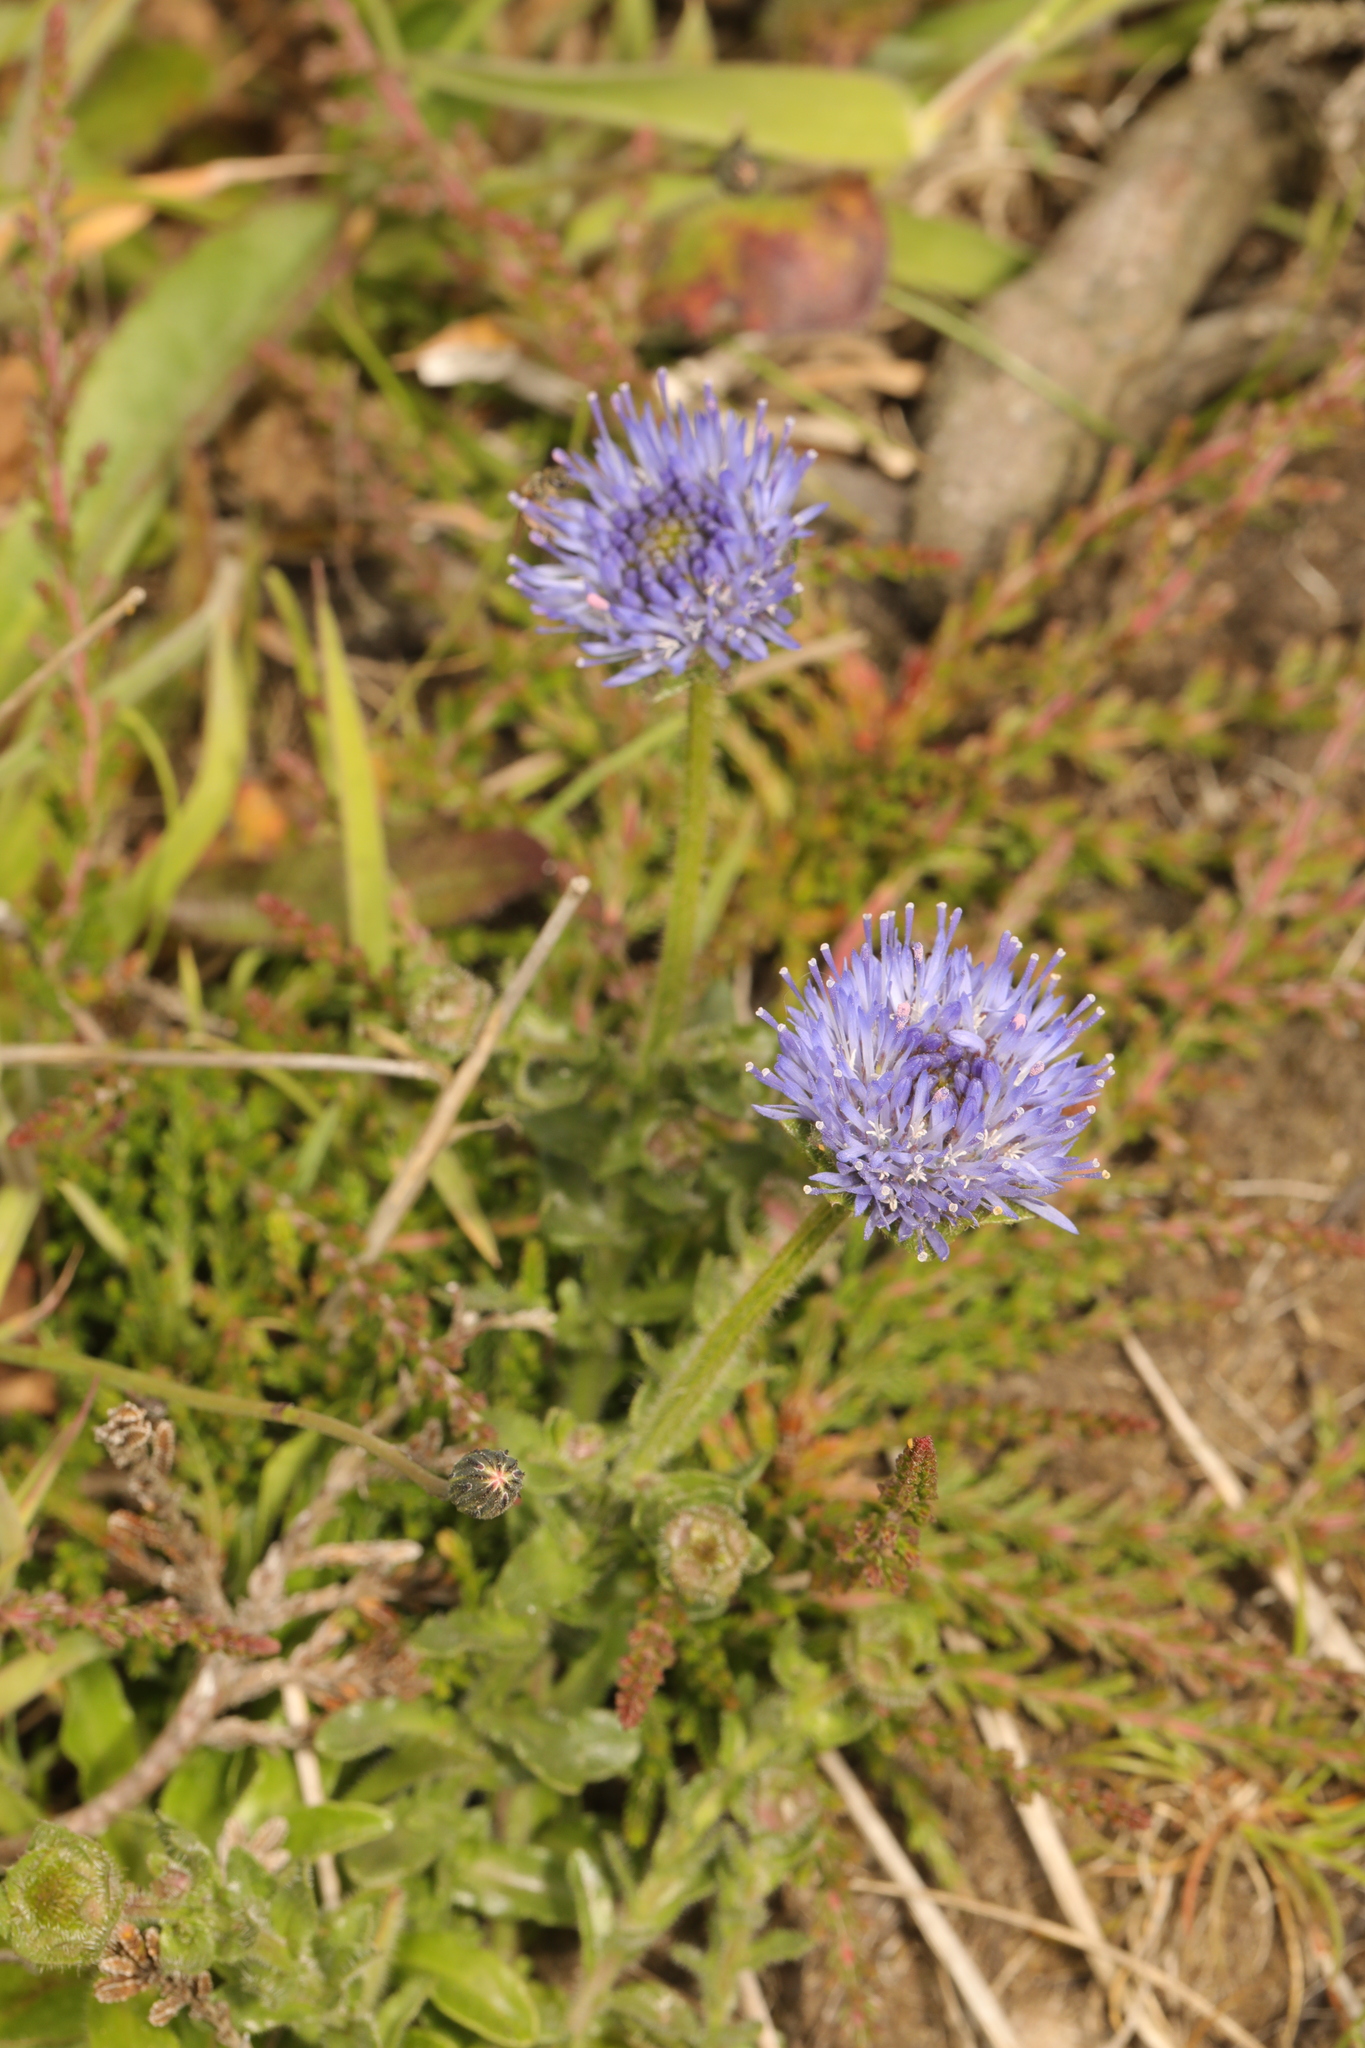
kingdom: Plantae
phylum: Tracheophyta
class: Magnoliopsida
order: Asterales
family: Campanulaceae
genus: Jasione
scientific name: Jasione montana
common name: Sheep's-bit
